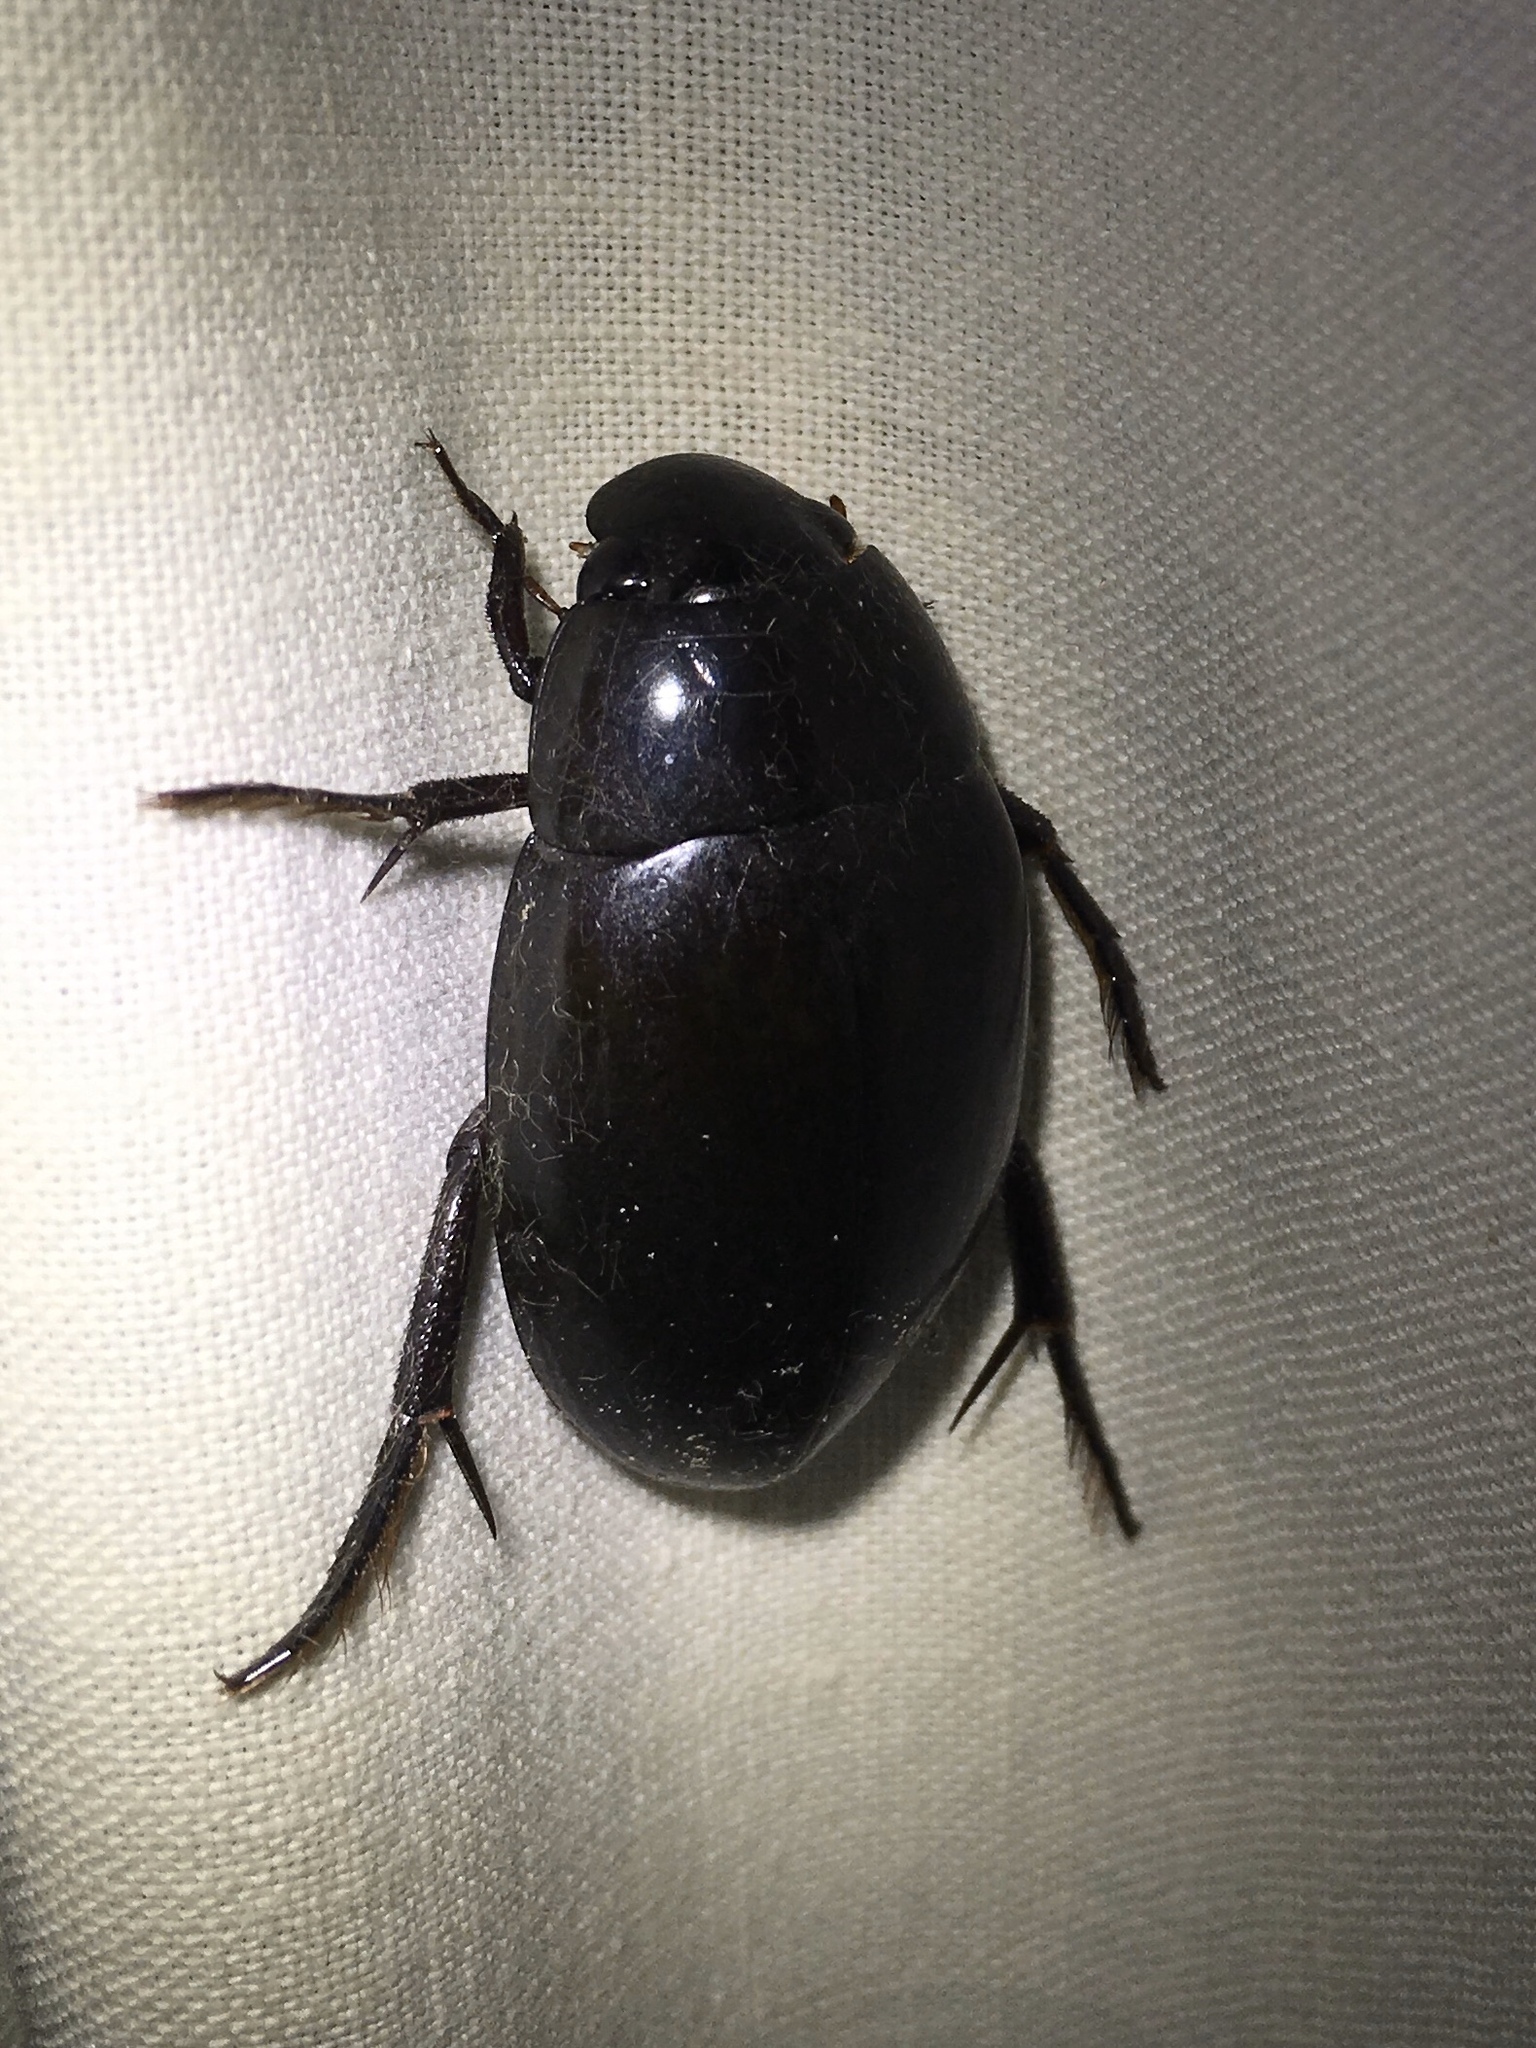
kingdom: Animalia
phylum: Arthropoda
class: Insecta
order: Coleoptera
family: Hydrophilidae
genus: Hydrophilus
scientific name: Hydrophilus ovatus
